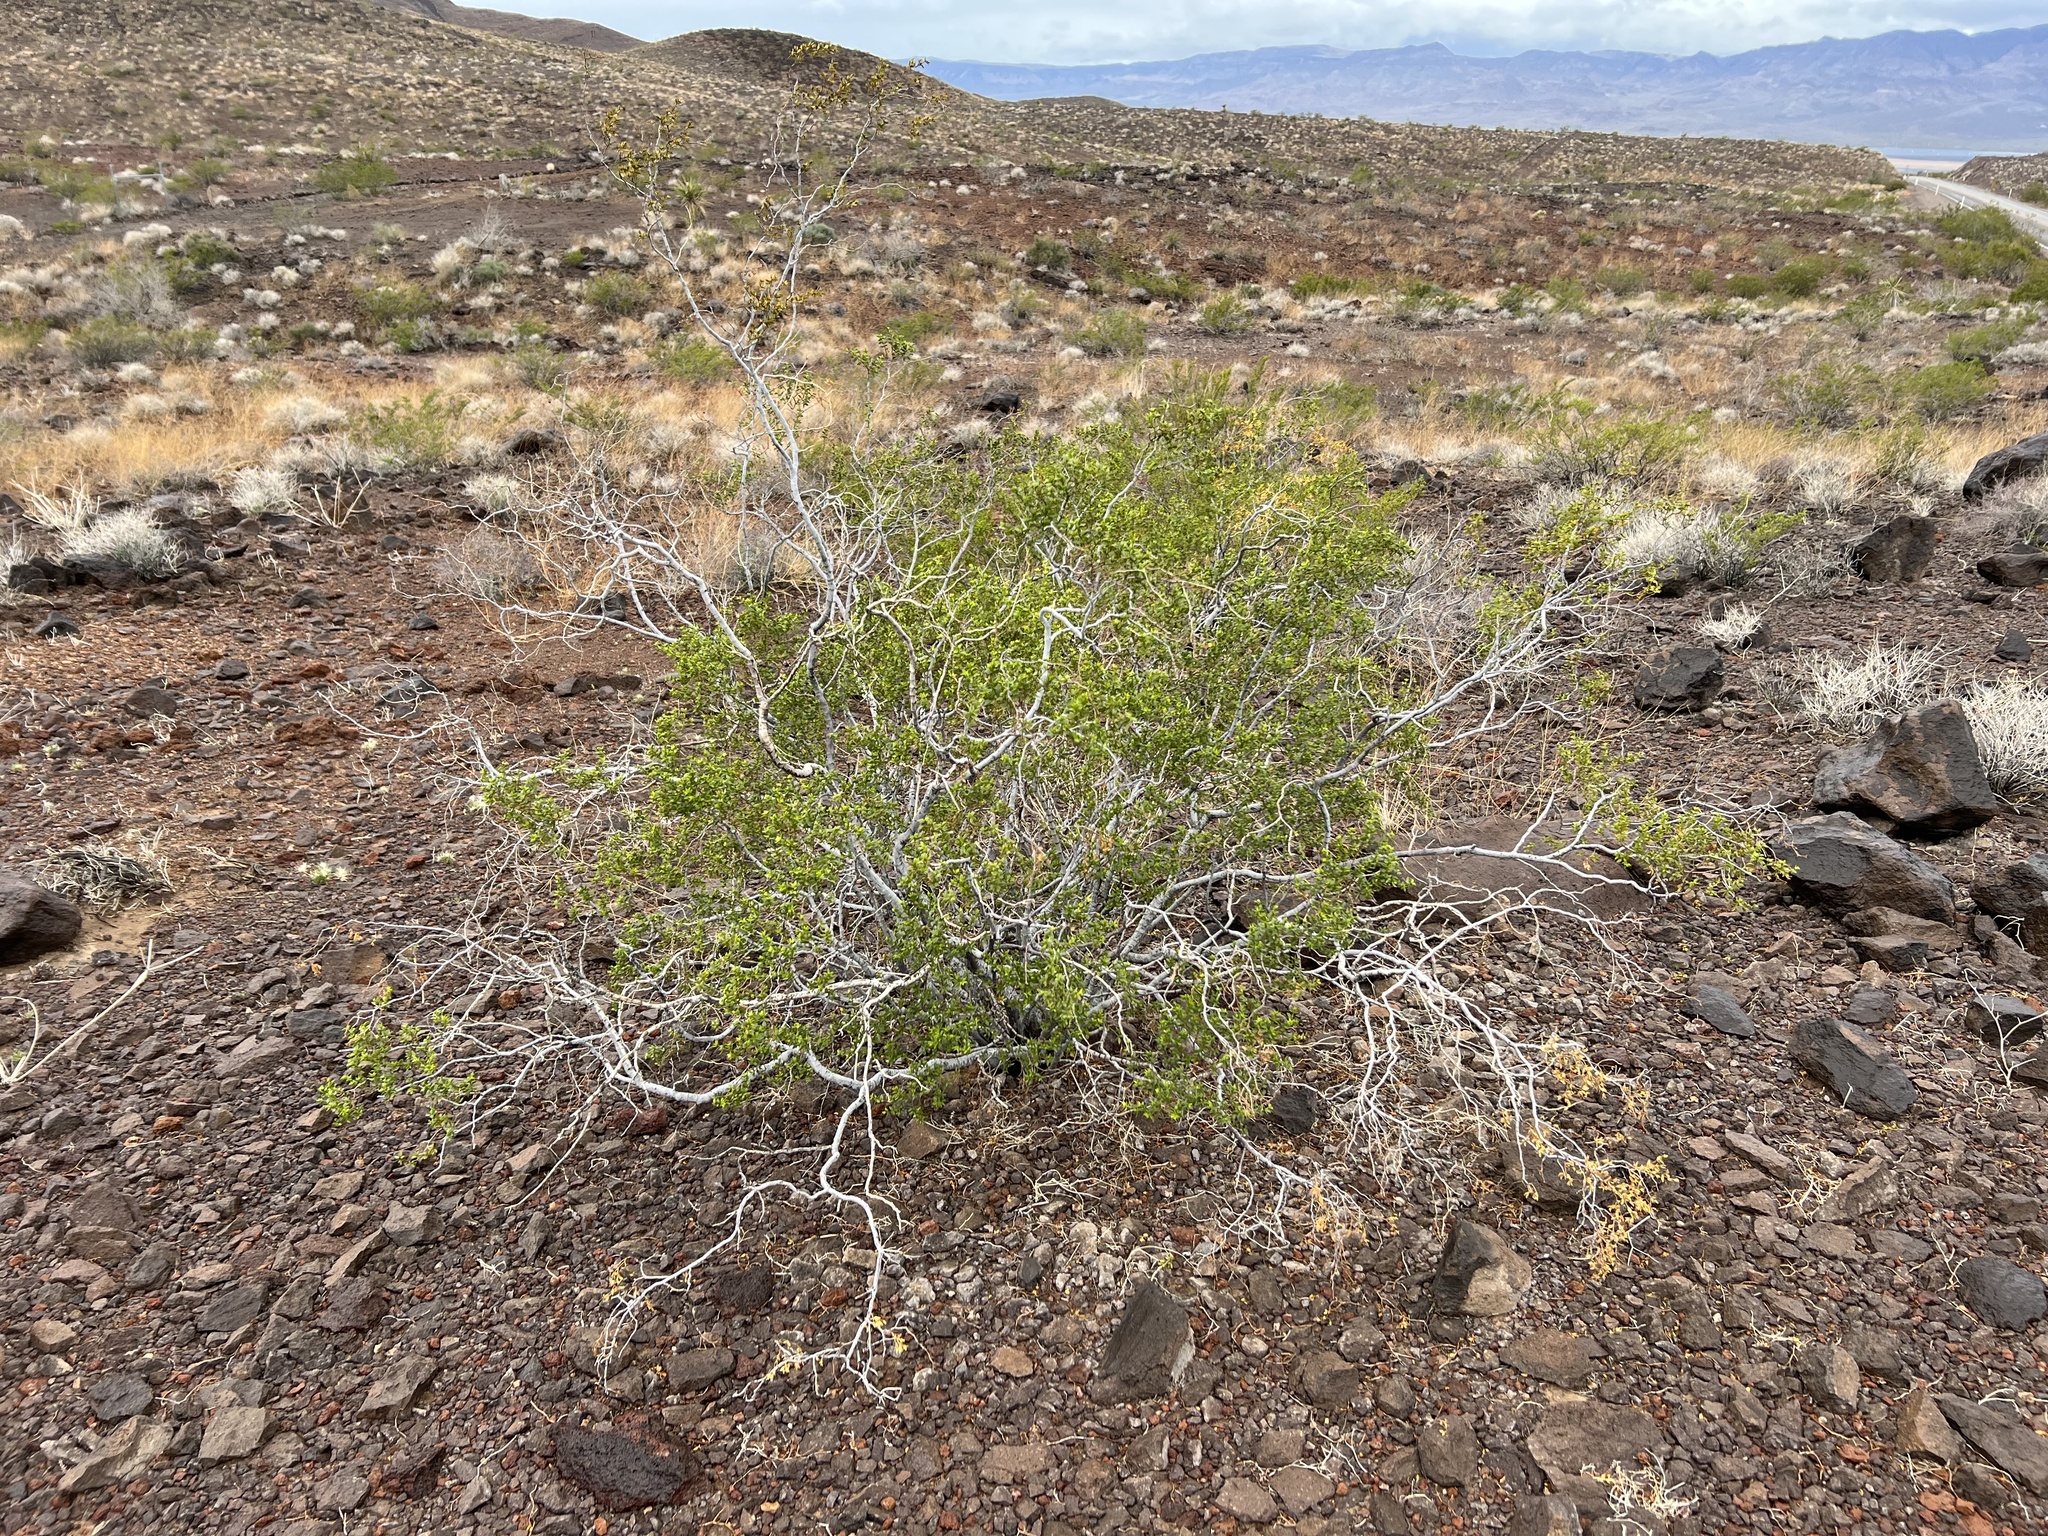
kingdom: Plantae
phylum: Tracheophyta
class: Magnoliopsida
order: Zygophyllales
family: Zygophyllaceae
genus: Larrea
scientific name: Larrea tridentata
